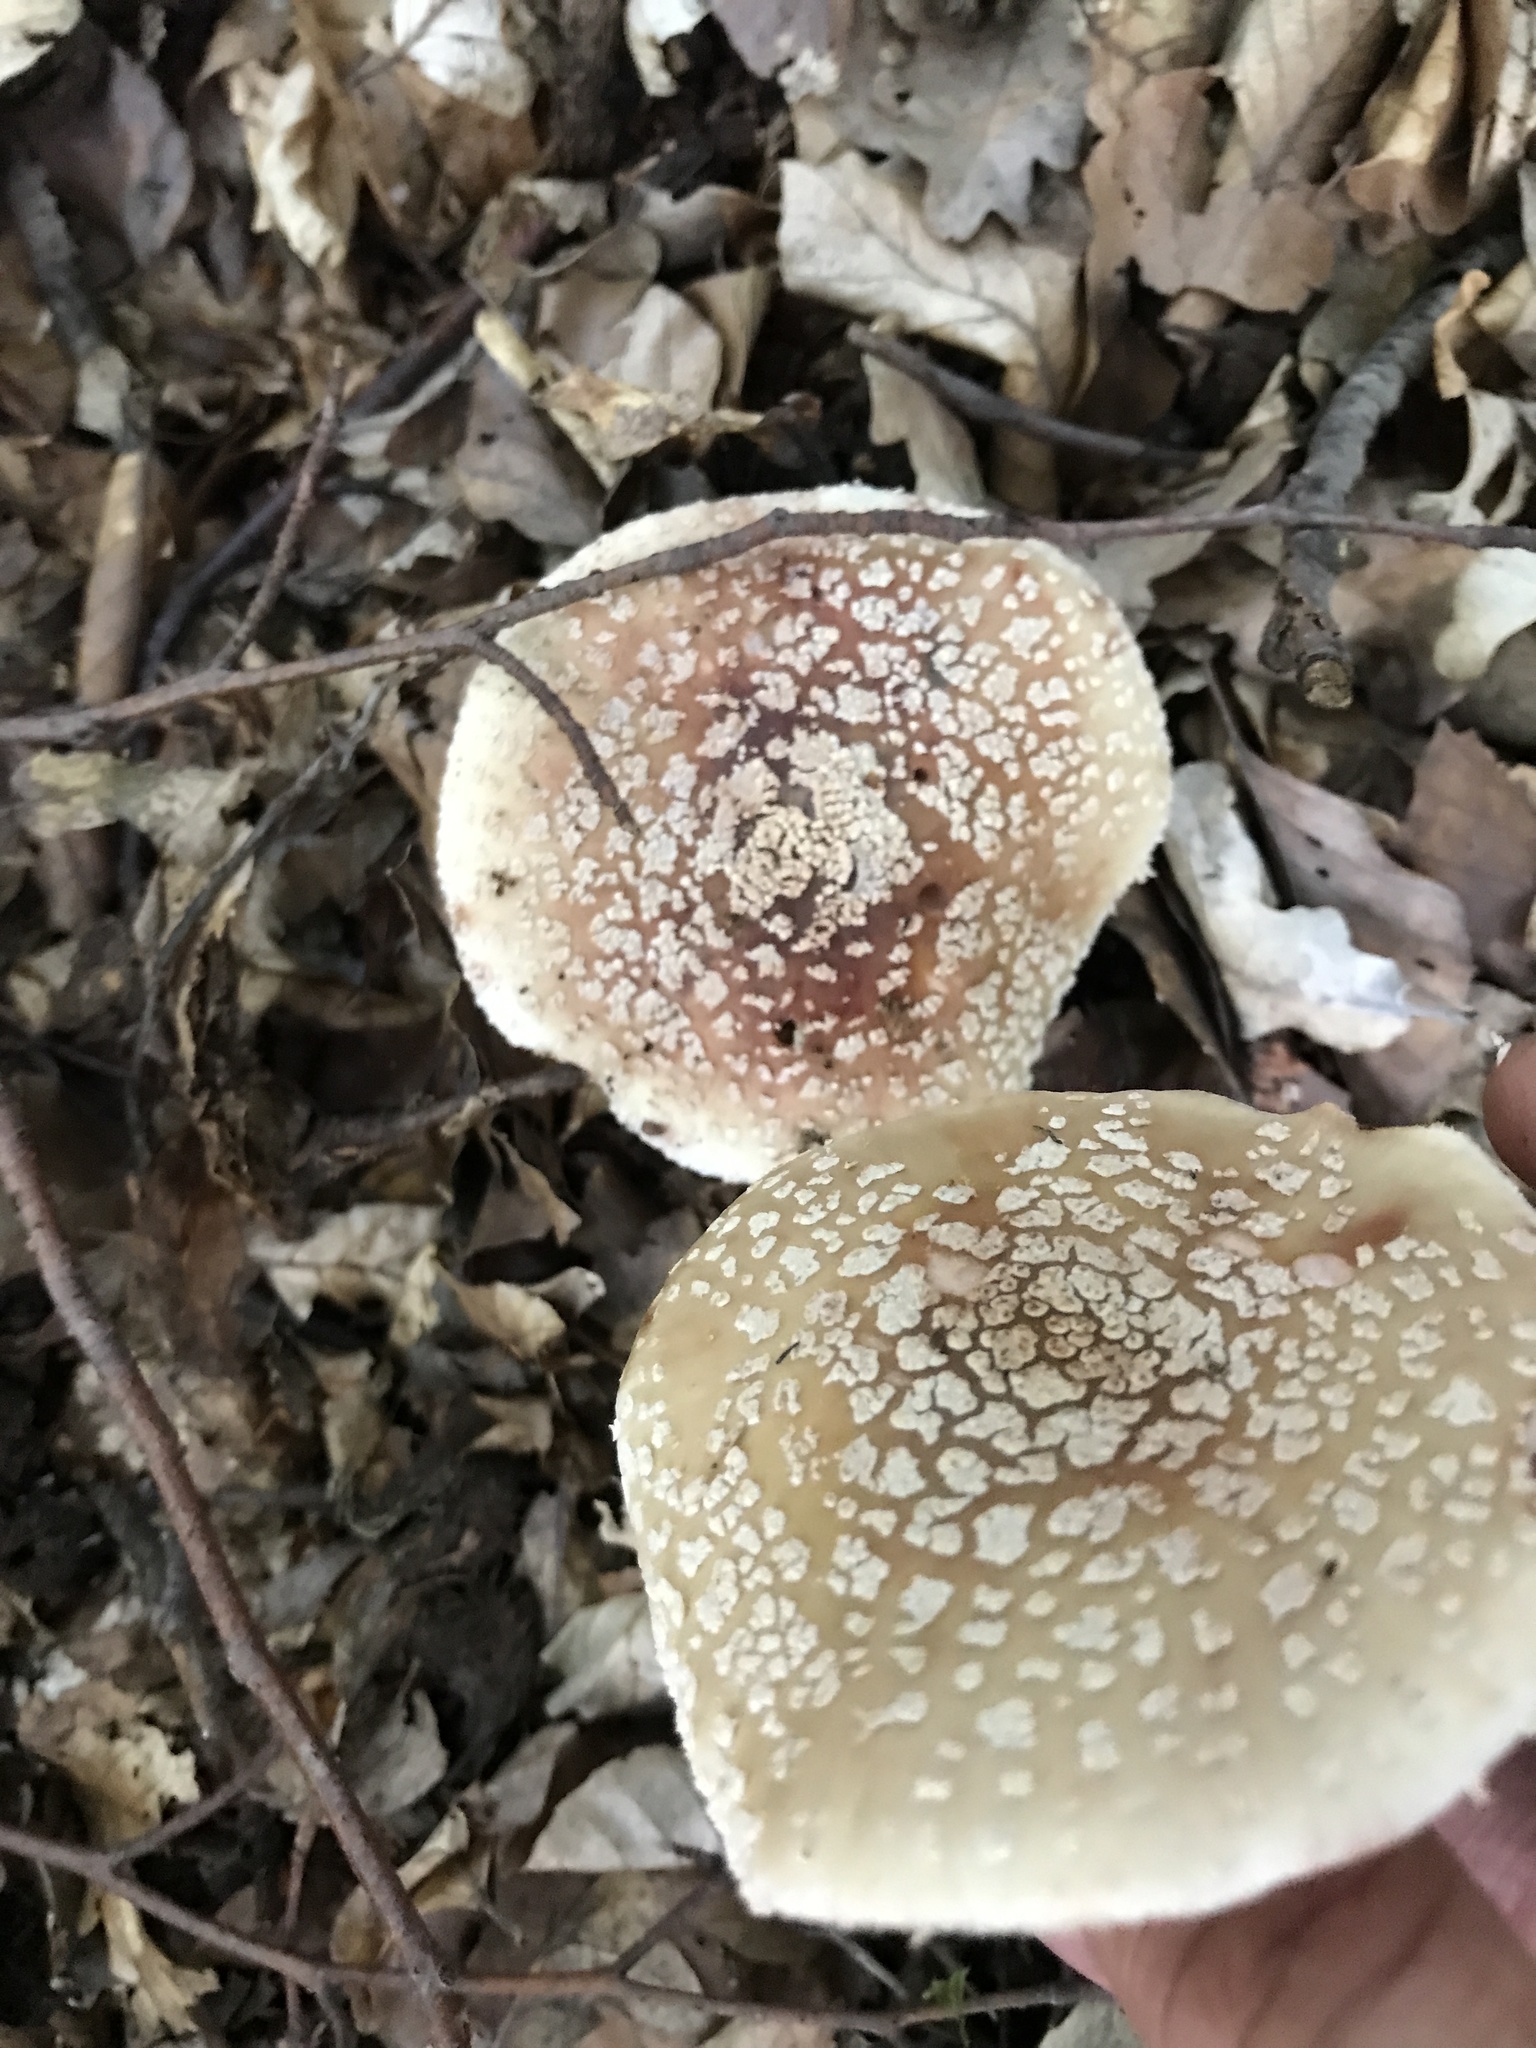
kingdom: Fungi
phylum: Basidiomycota
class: Agaricomycetes
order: Agaricales
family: Amanitaceae
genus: Amanita
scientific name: Amanita rubescens
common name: Blusher
